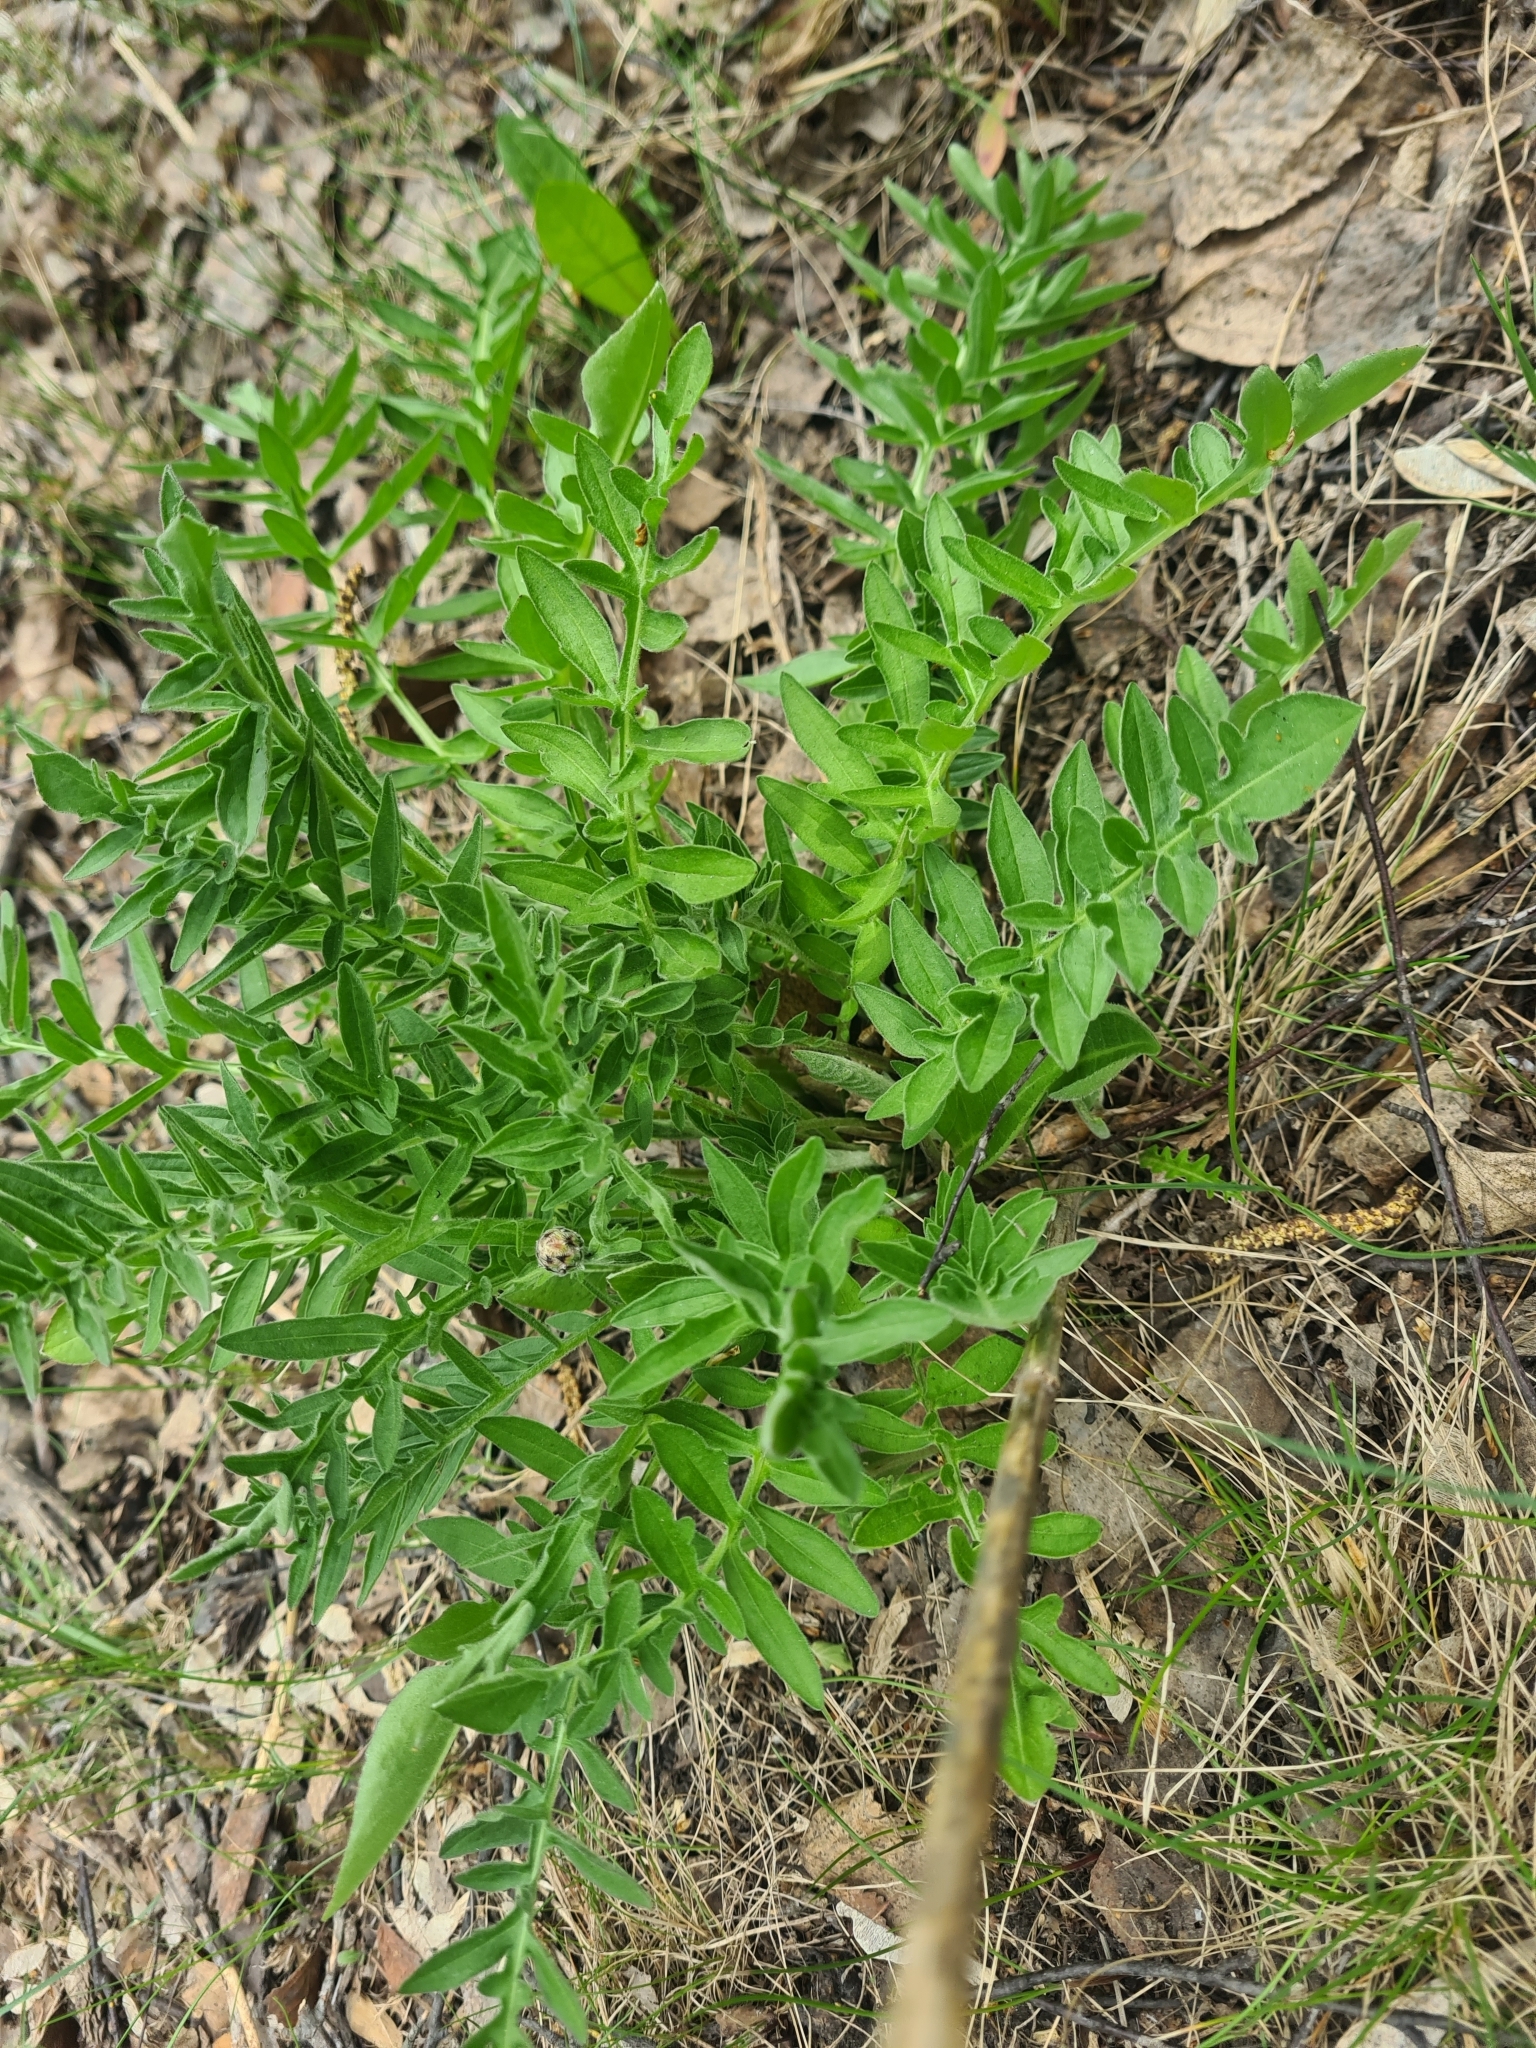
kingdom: Plantae
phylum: Tracheophyta
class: Magnoliopsida
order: Asterales
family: Asteraceae
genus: Centaurea
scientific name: Centaurea scabiosa
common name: Greater knapweed
